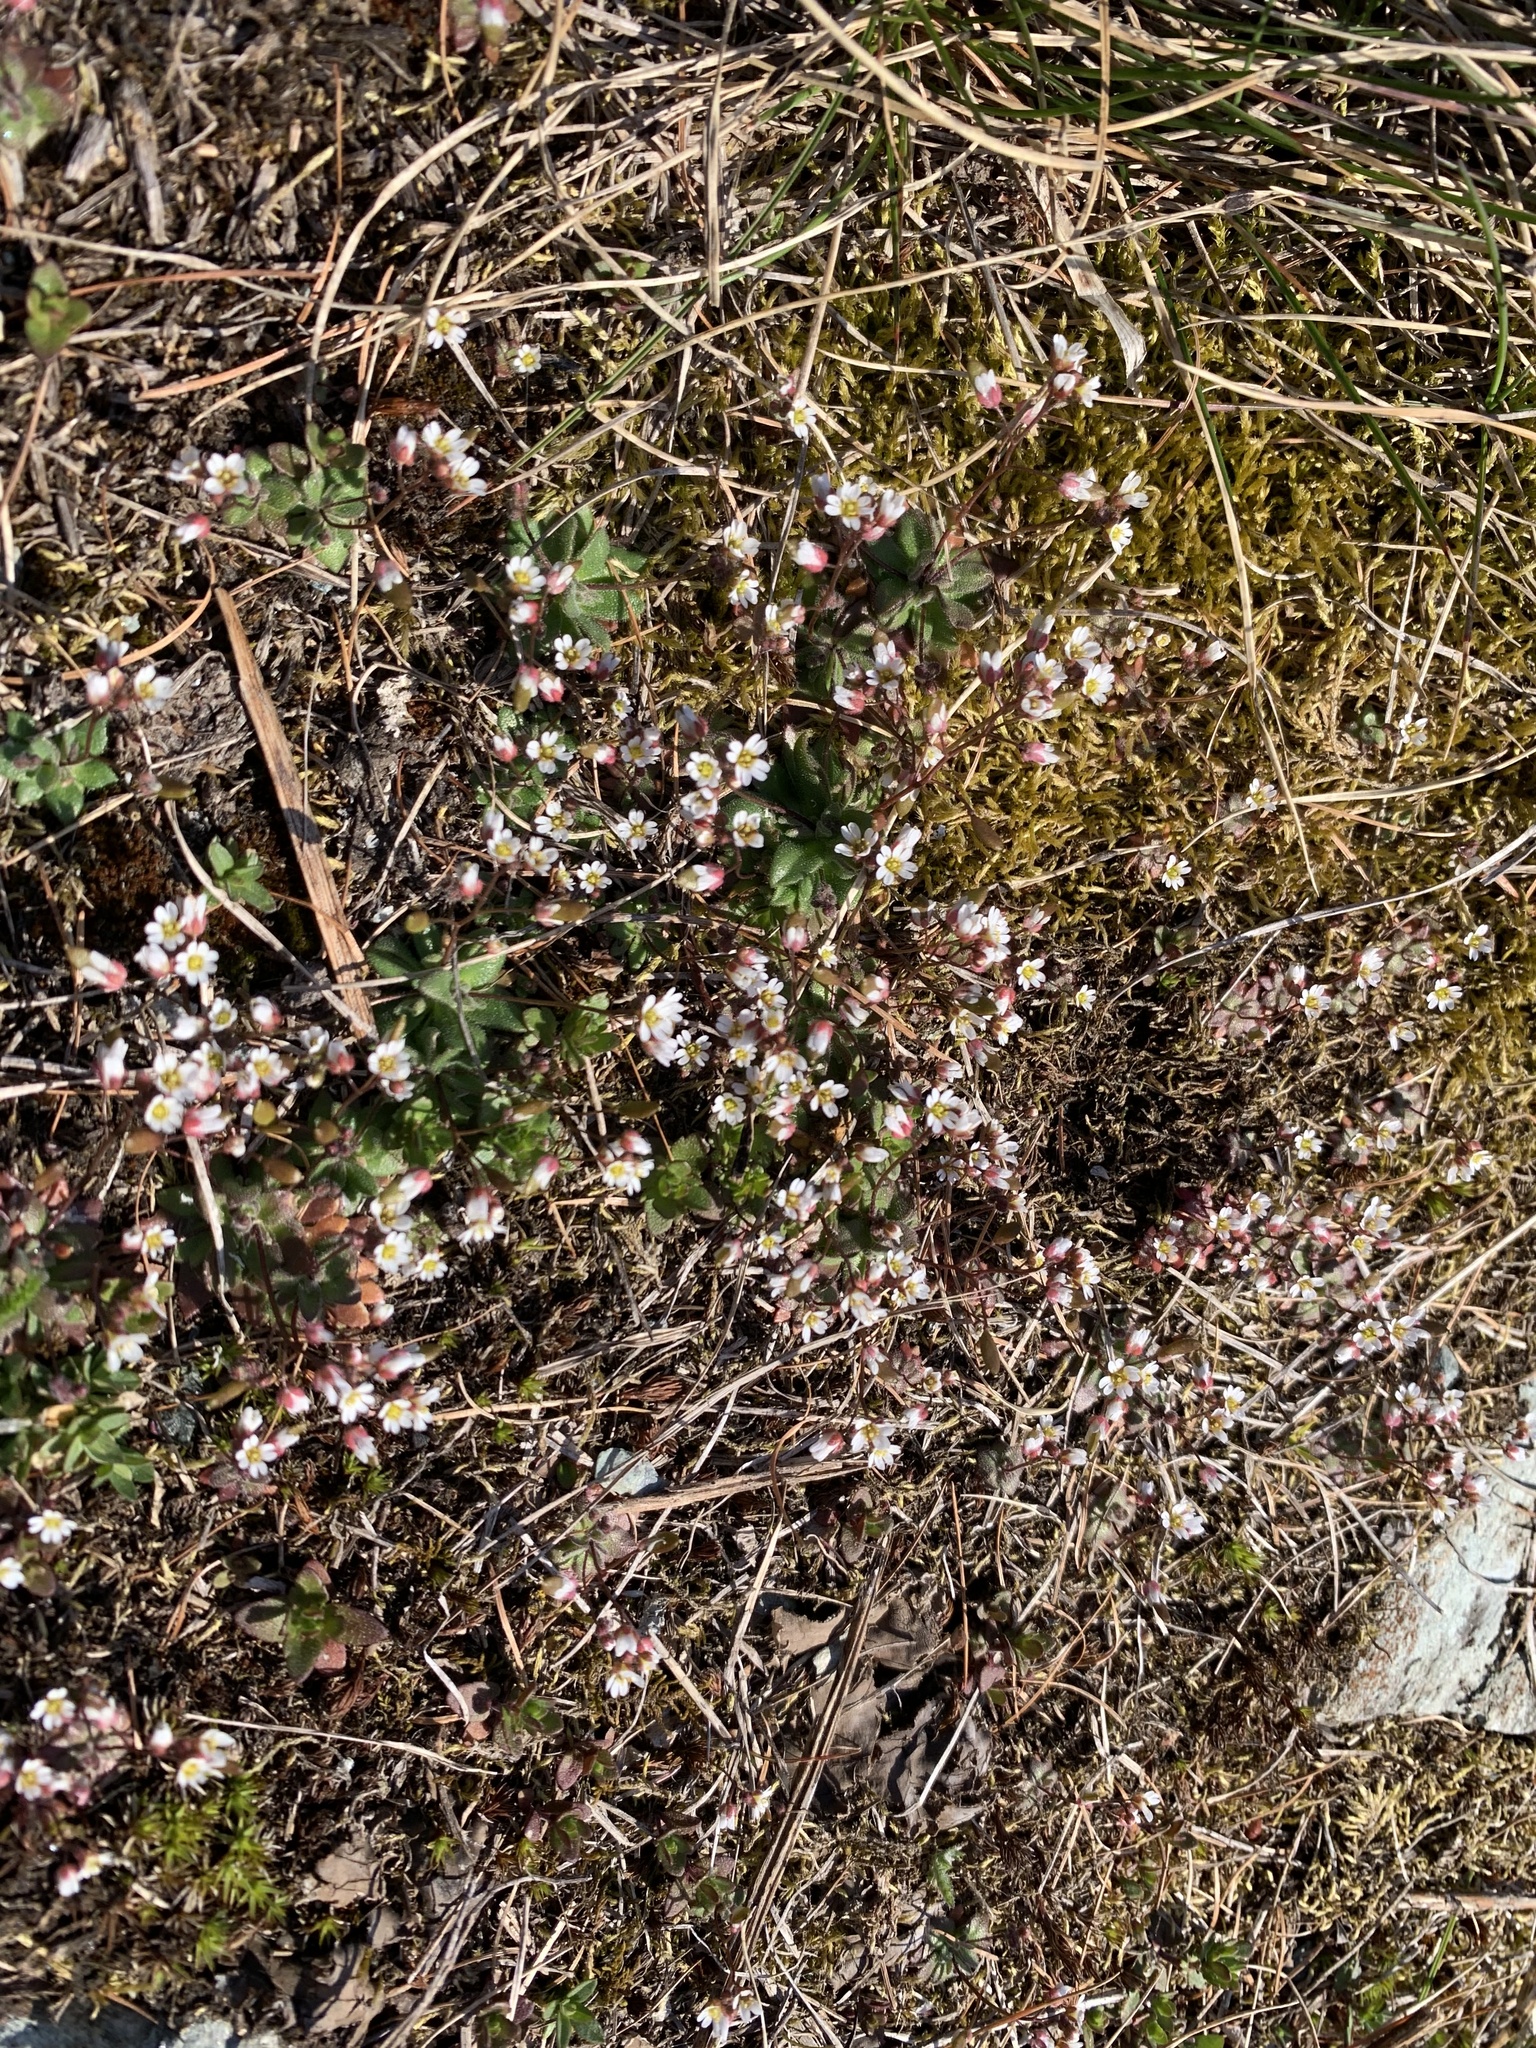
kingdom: Plantae
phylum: Tracheophyta
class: Magnoliopsida
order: Brassicales
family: Brassicaceae
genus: Draba
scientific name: Draba verna
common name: Spring draba
